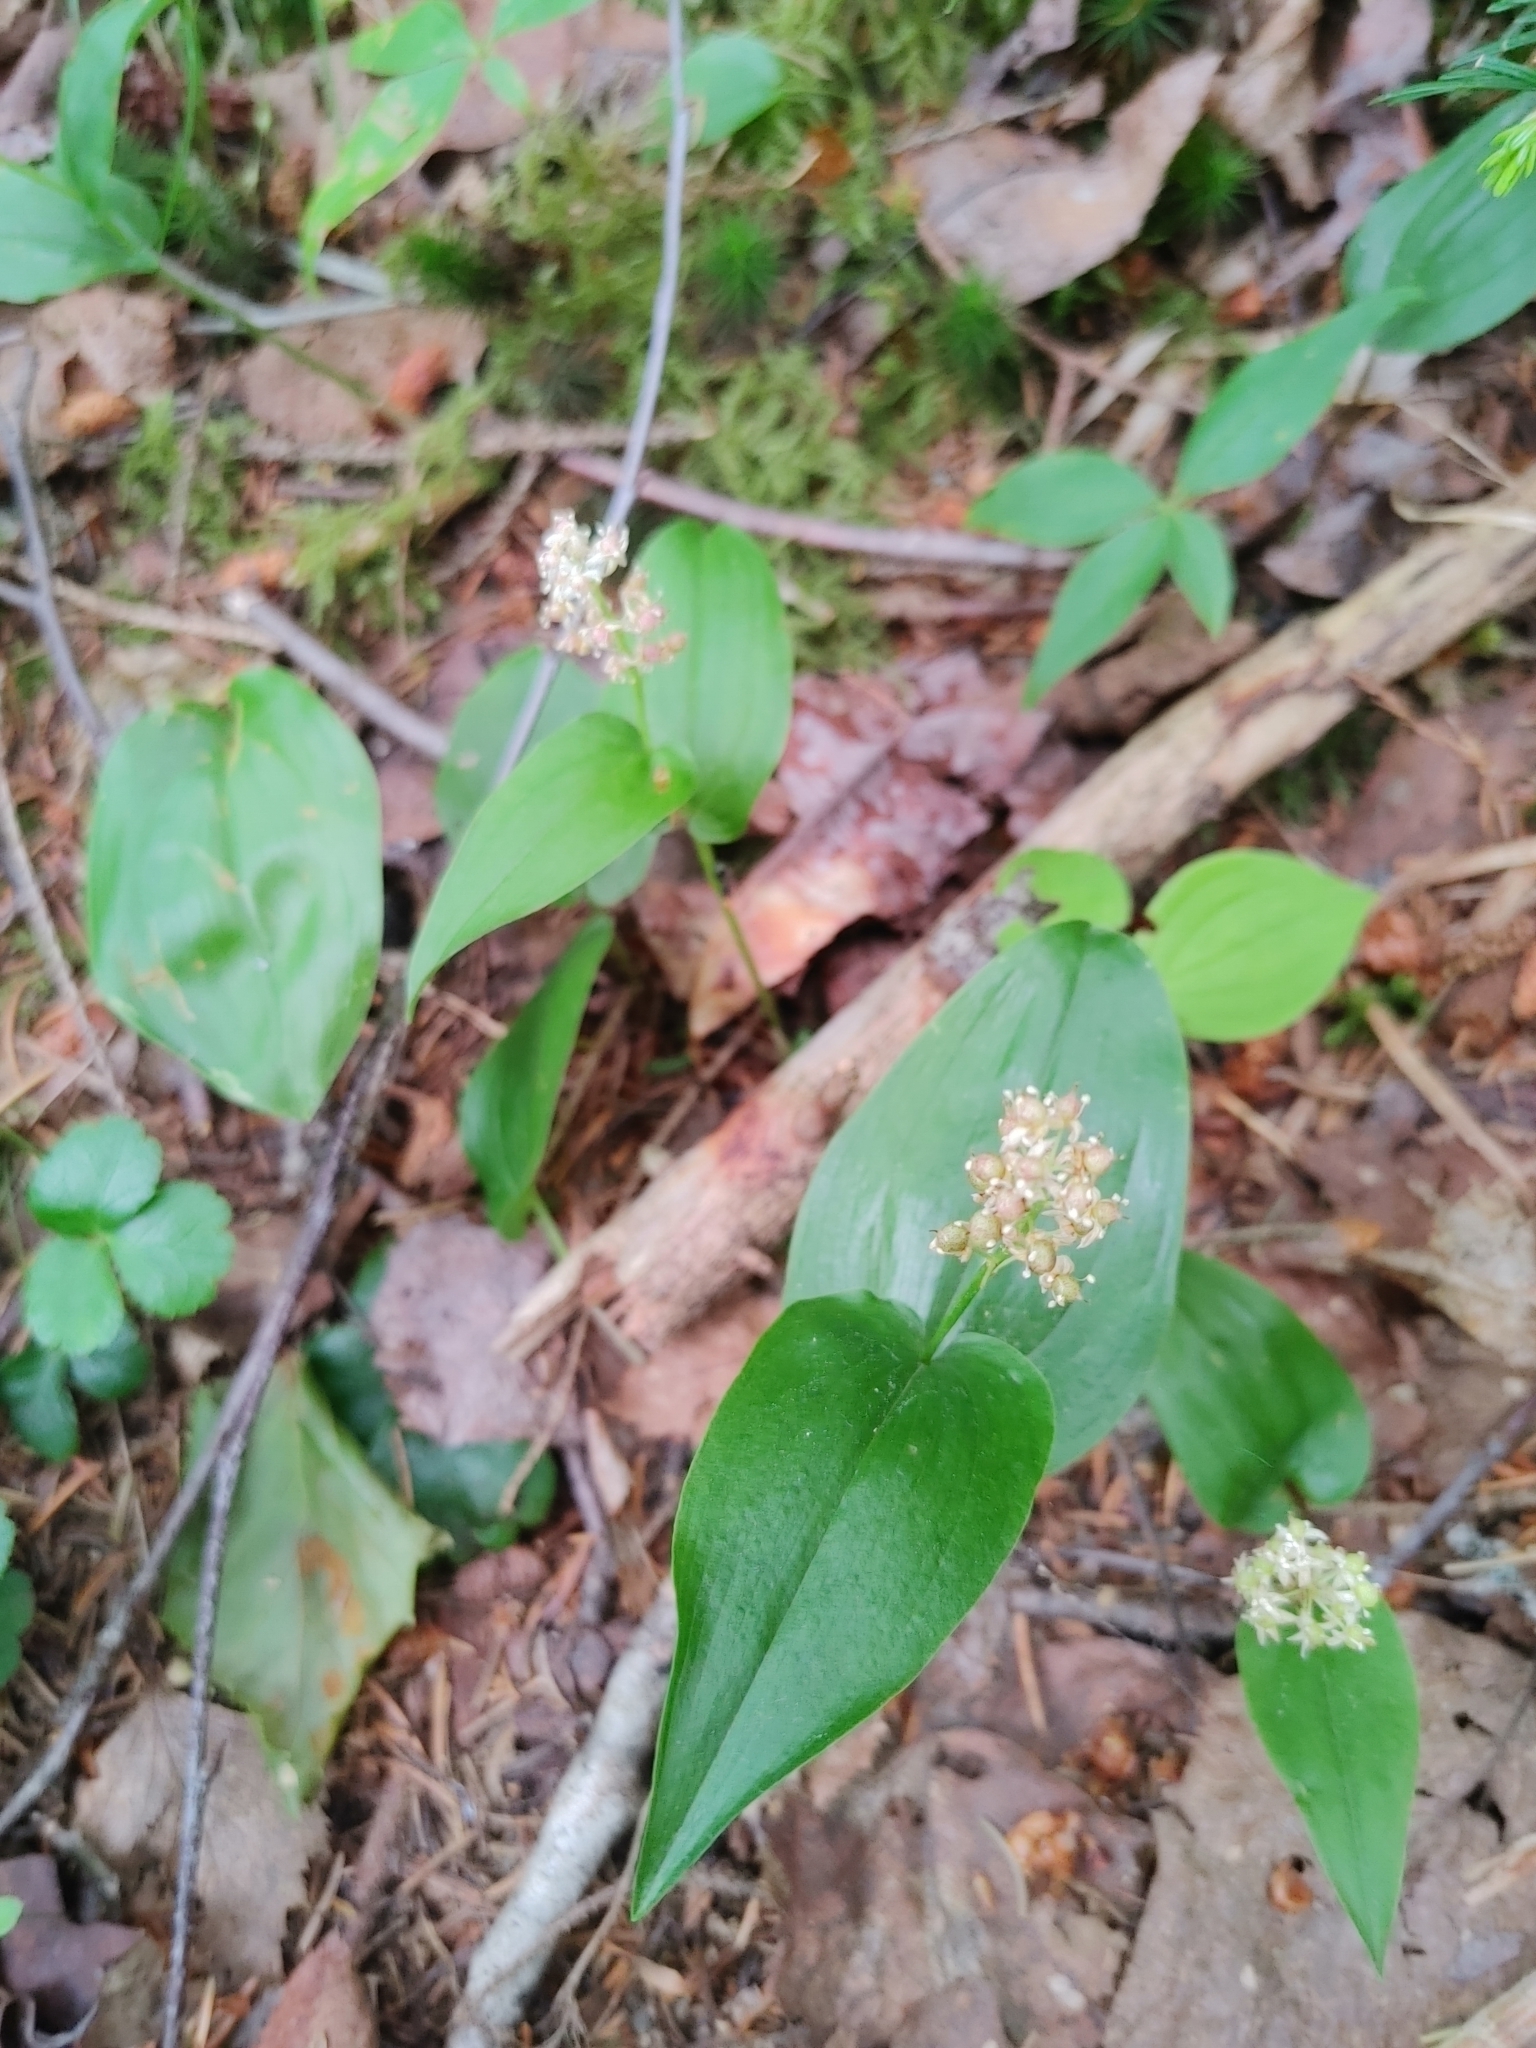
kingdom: Plantae
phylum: Tracheophyta
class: Liliopsida
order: Asparagales
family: Asparagaceae
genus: Maianthemum
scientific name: Maianthemum canadense
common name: False lily-of-the-valley
